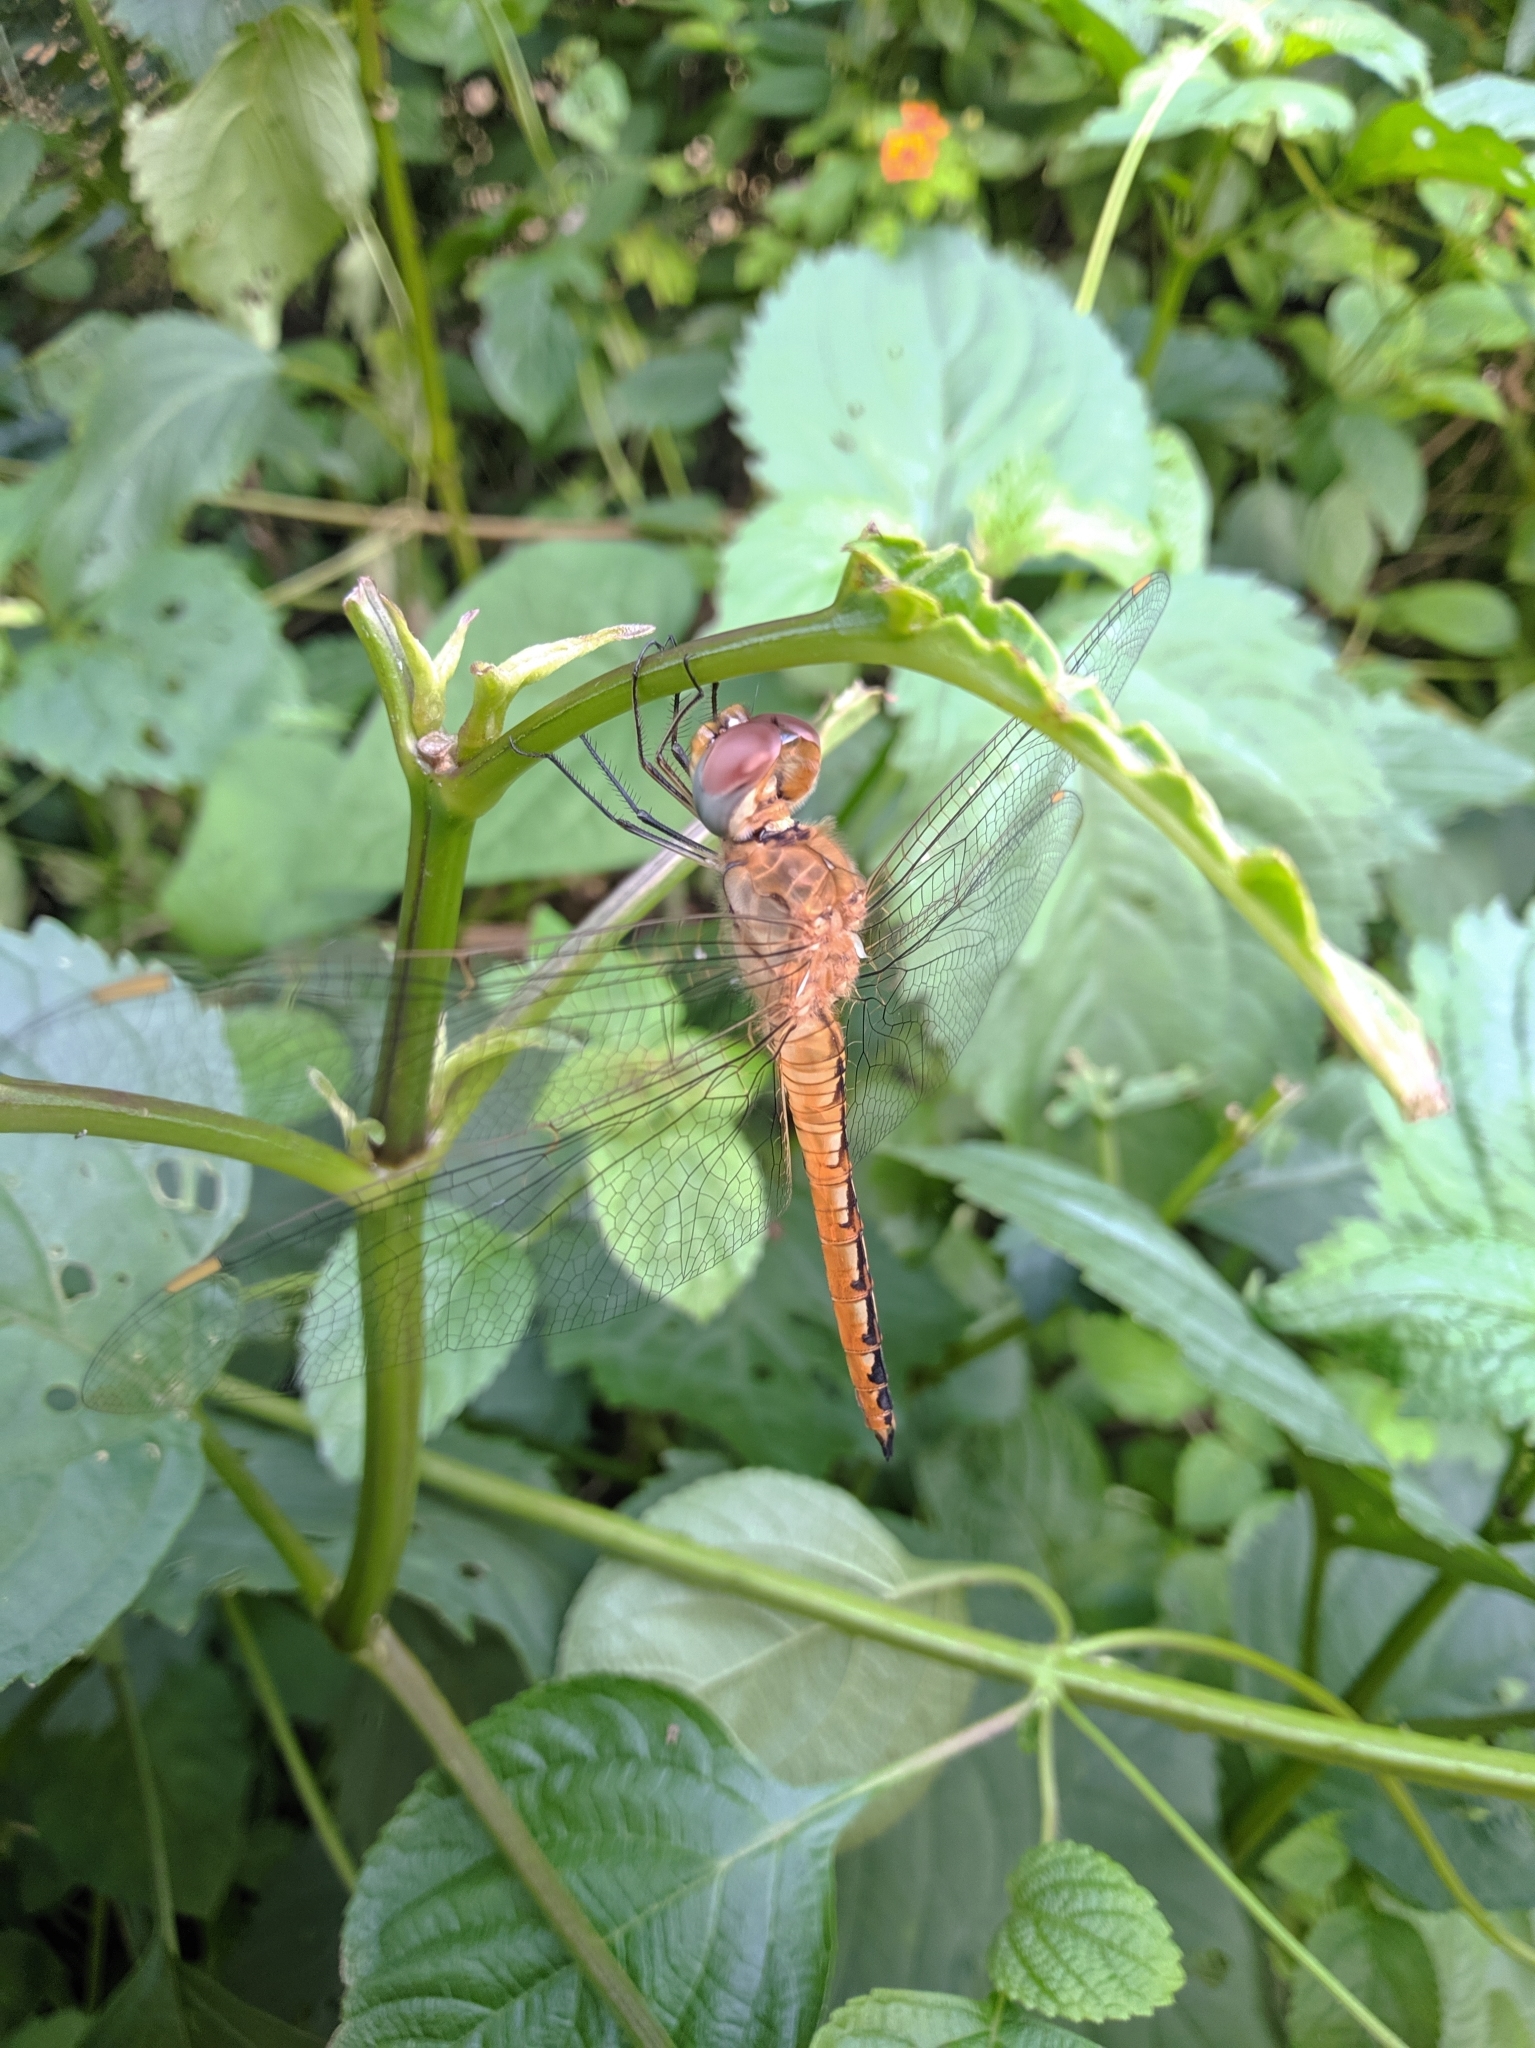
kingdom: Animalia
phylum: Arthropoda
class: Insecta
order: Odonata
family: Libellulidae
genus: Pantala
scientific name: Pantala flavescens
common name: Wandering glider
